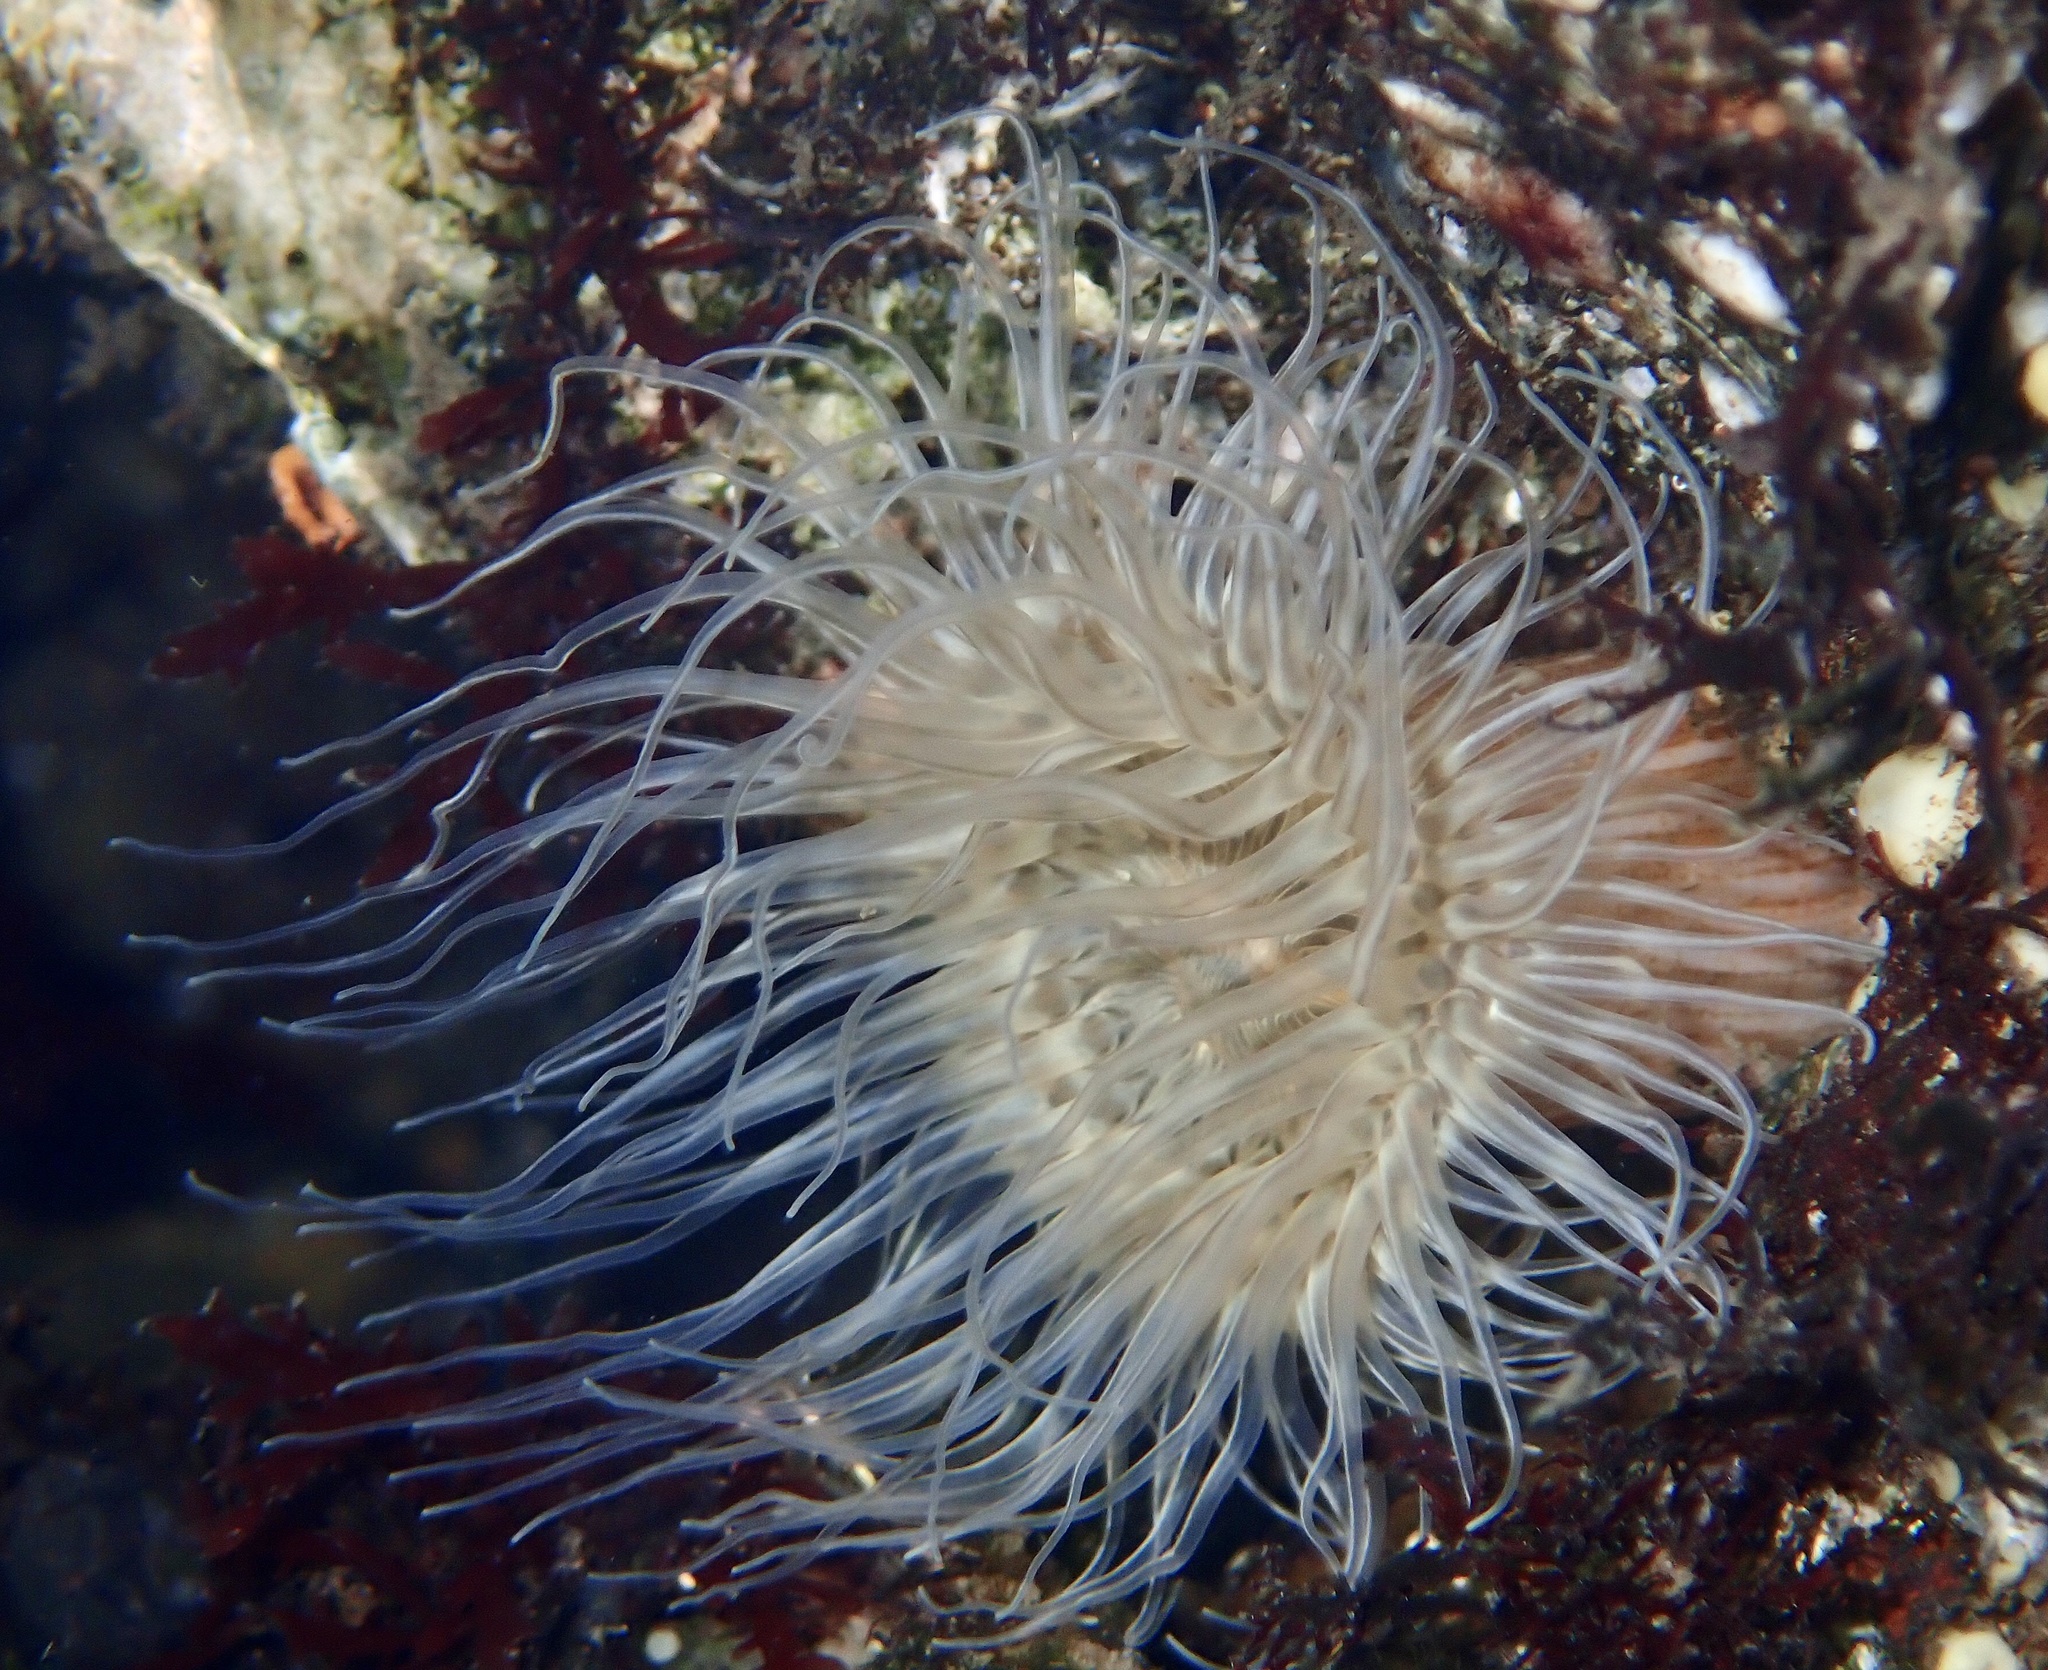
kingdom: Animalia
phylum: Cnidaria
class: Anthozoa
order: Actiniaria
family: Sagartiidae
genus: Sagartia
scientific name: Sagartia undata
